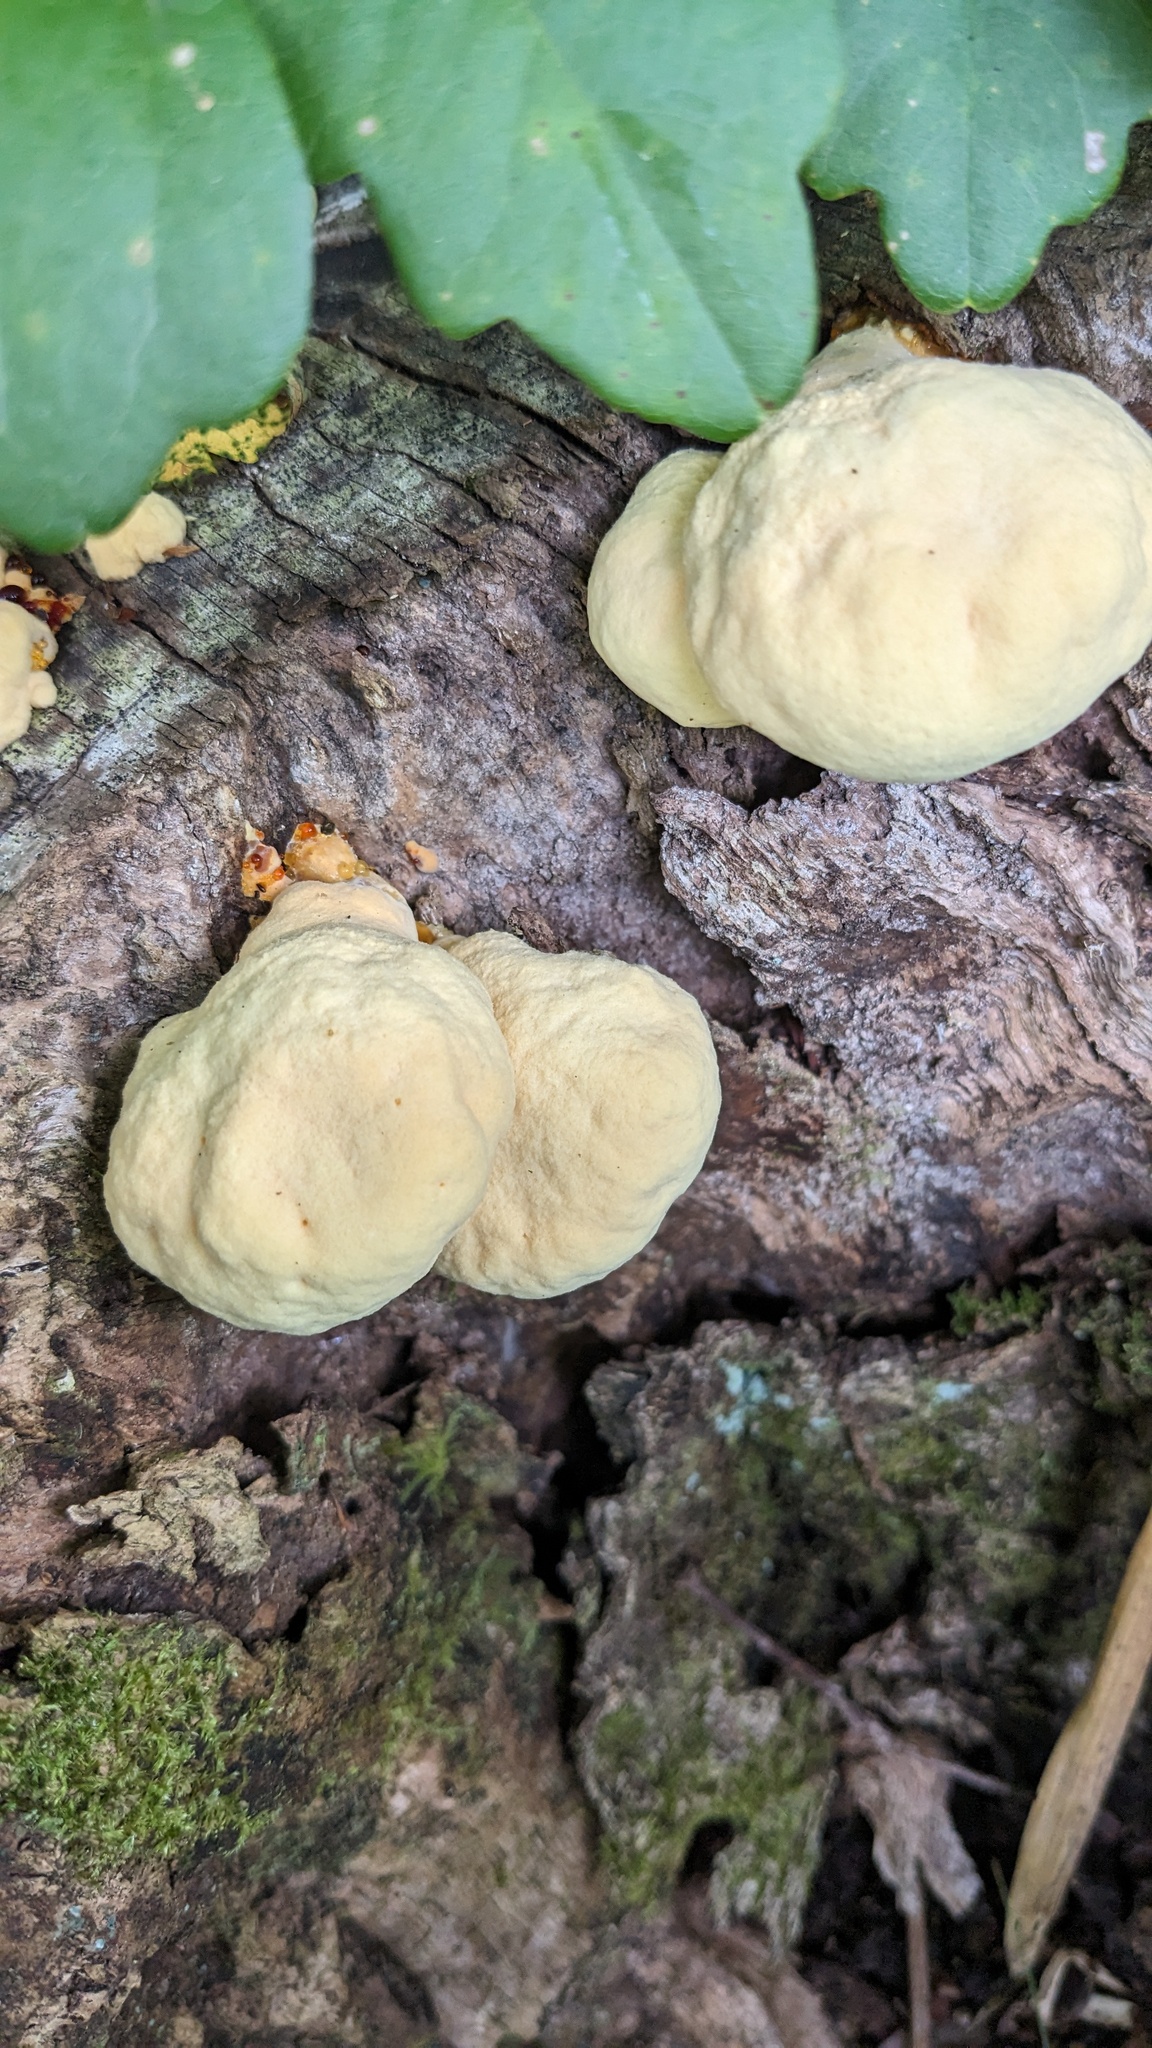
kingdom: Fungi
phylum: Basidiomycota
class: Agaricomycetes
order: Polyporales
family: Laetiporaceae
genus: Laetiporus
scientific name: Laetiporus sulphureus
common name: Chicken of the woods
